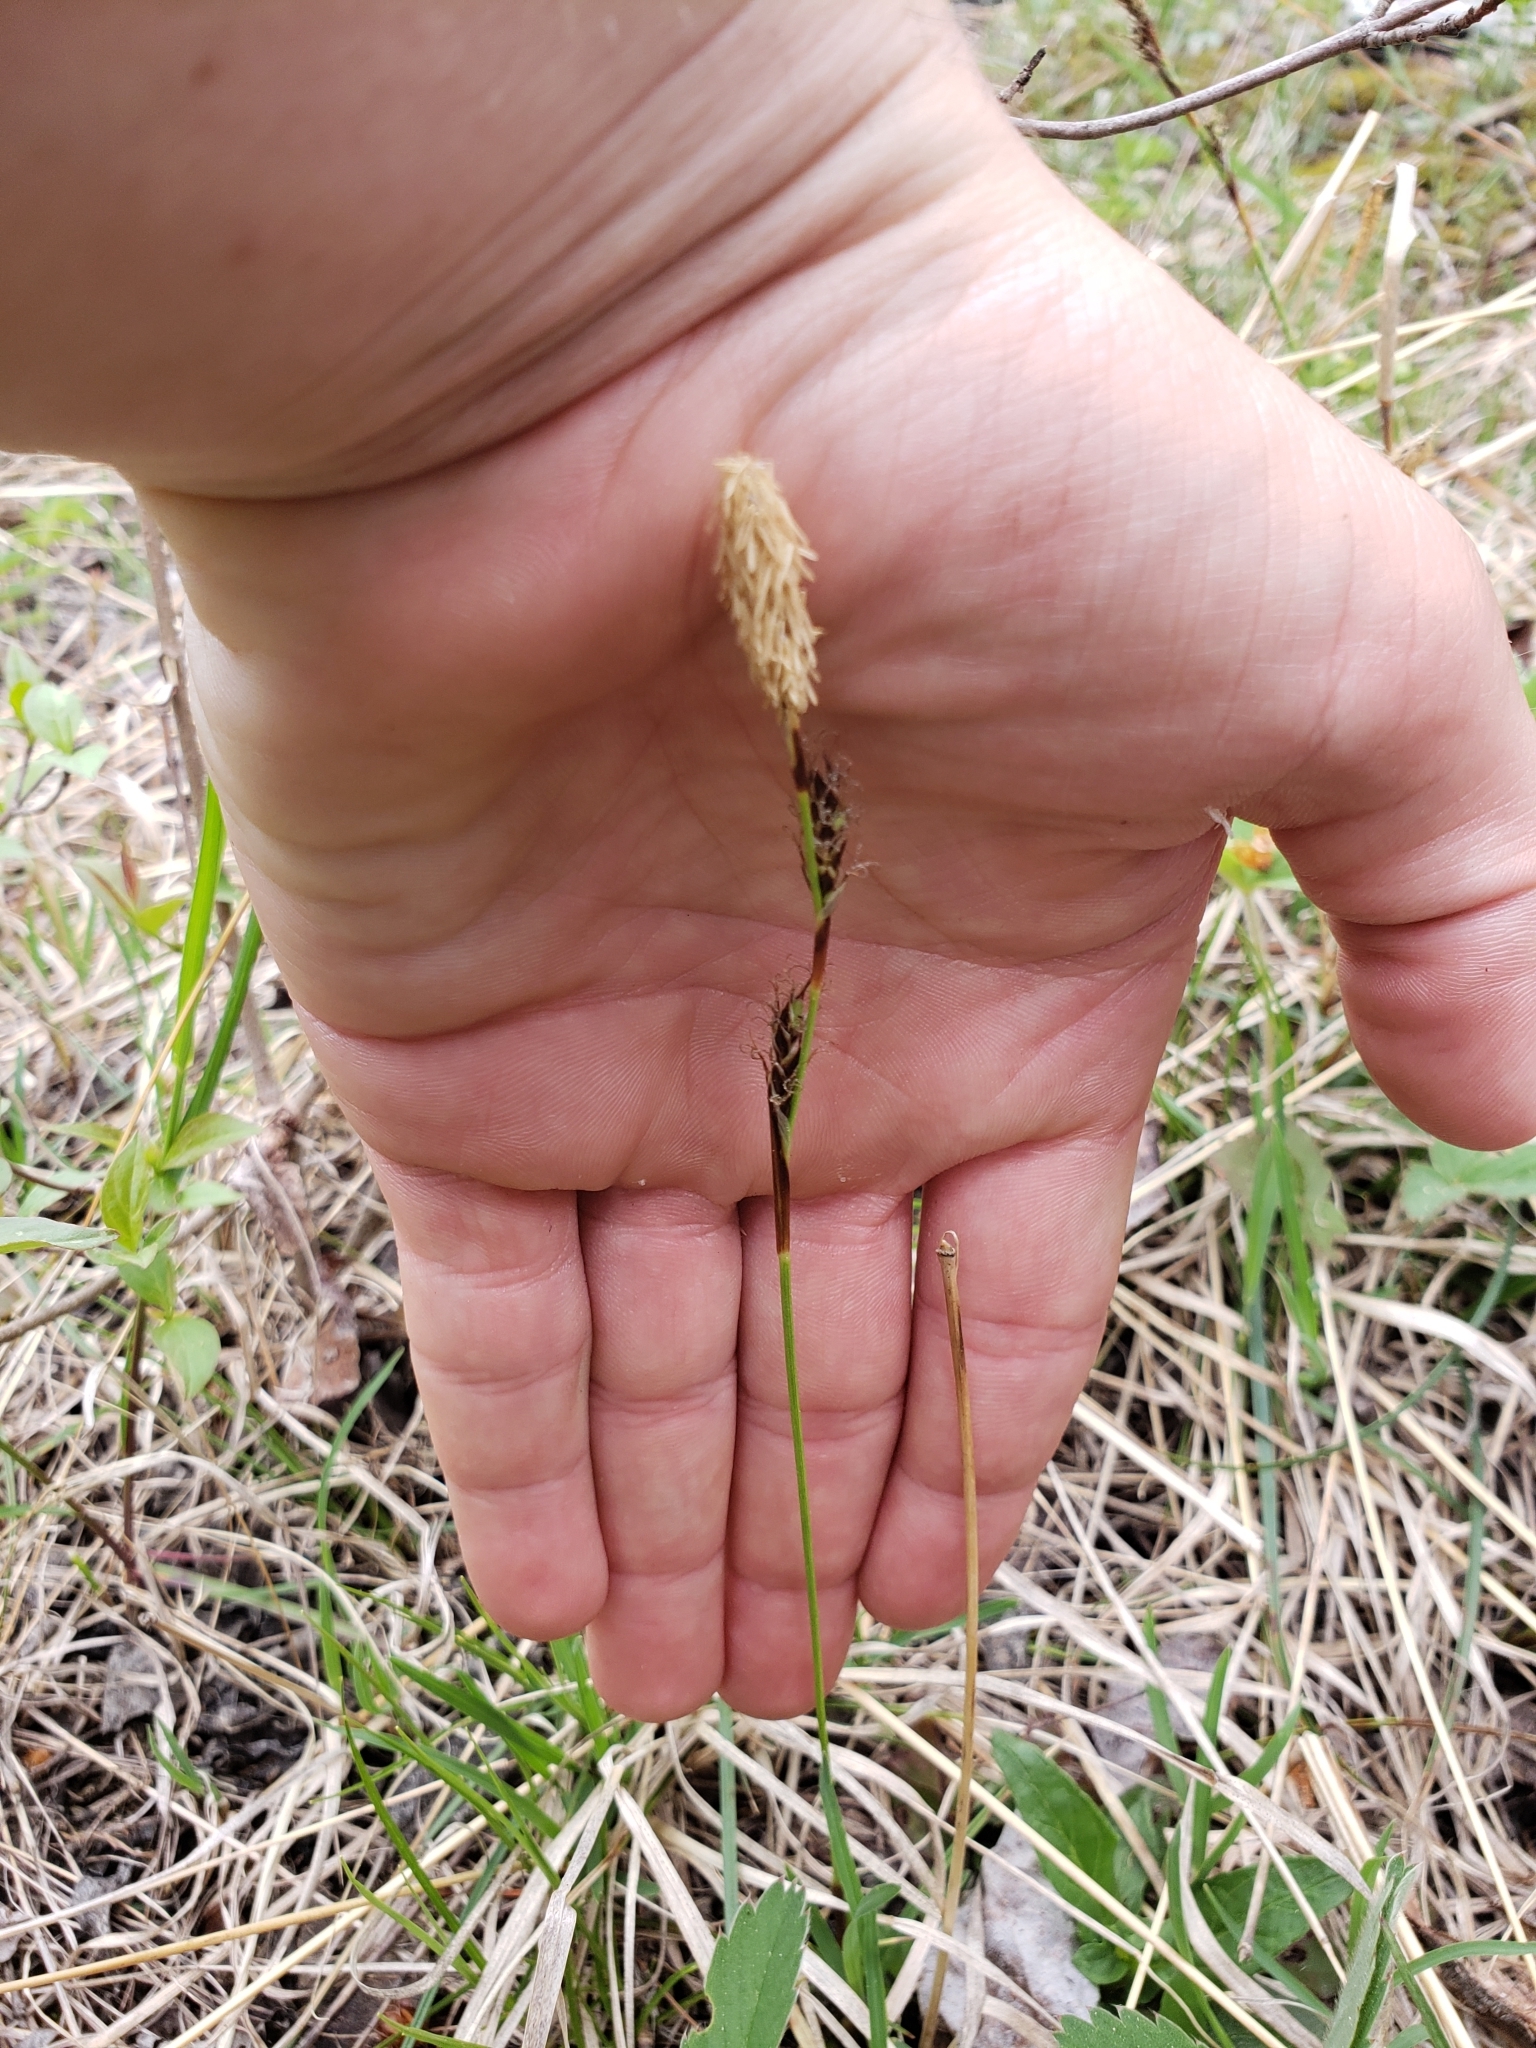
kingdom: Plantae
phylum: Tracheophyta
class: Liliopsida
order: Poales
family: Cyperaceae
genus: Carex
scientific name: Carex richardsonii
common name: Prairie hummock sedge
